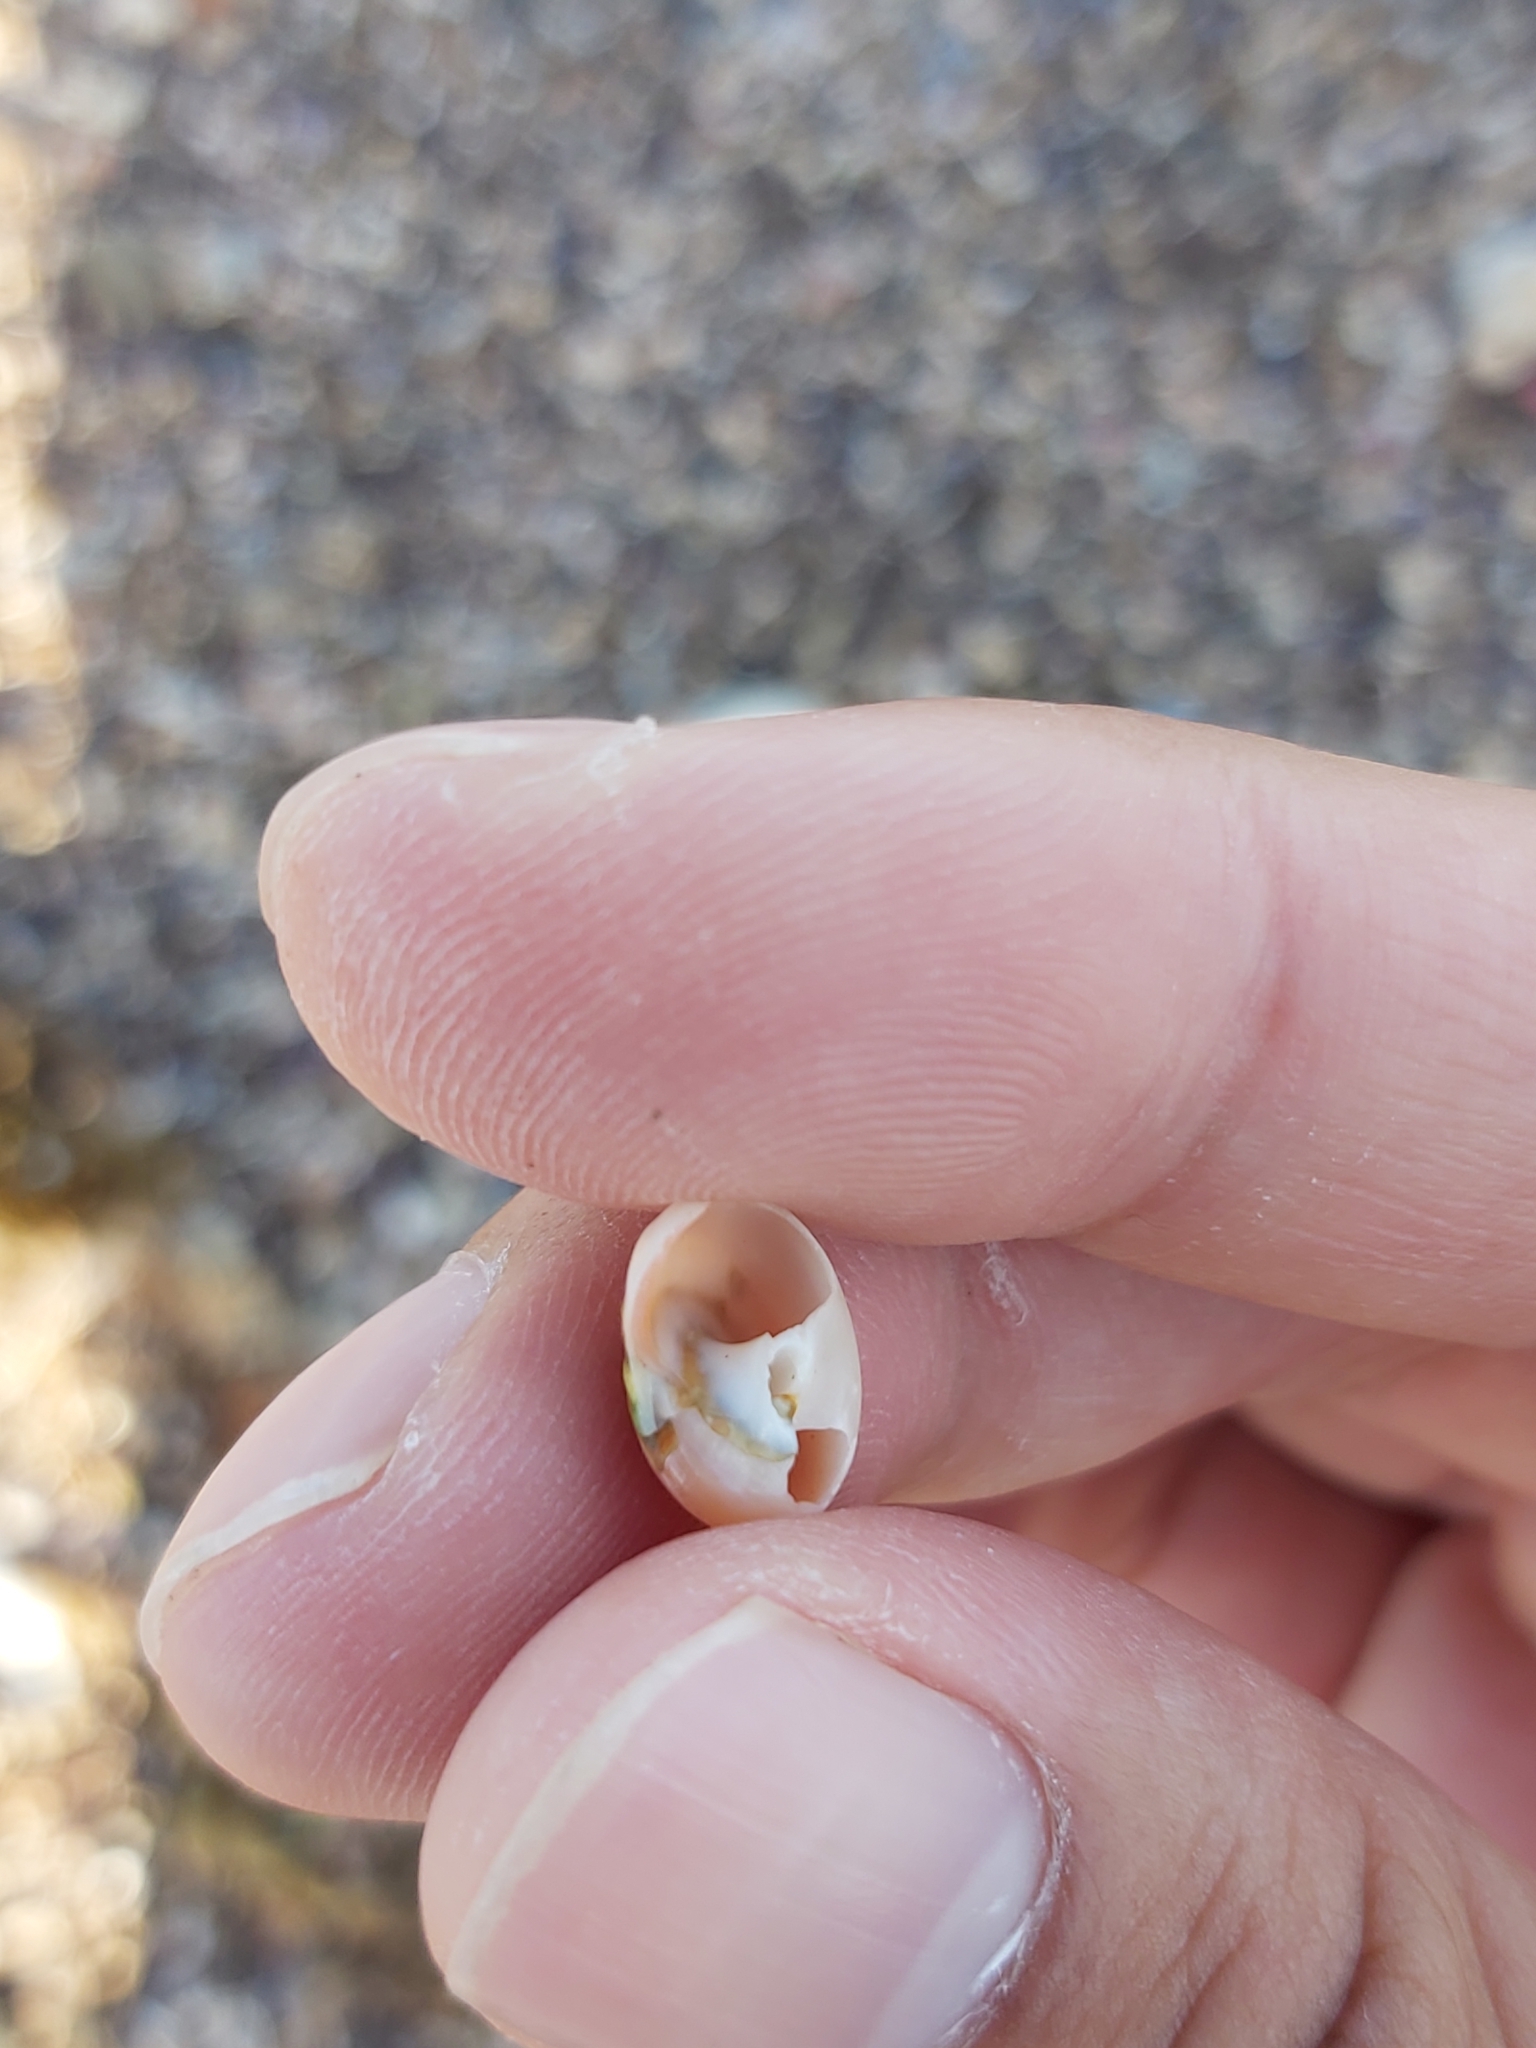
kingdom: Animalia
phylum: Mollusca
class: Gastropoda
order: Trochida
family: Turbinidae
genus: Lunella
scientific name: Lunella undulata
